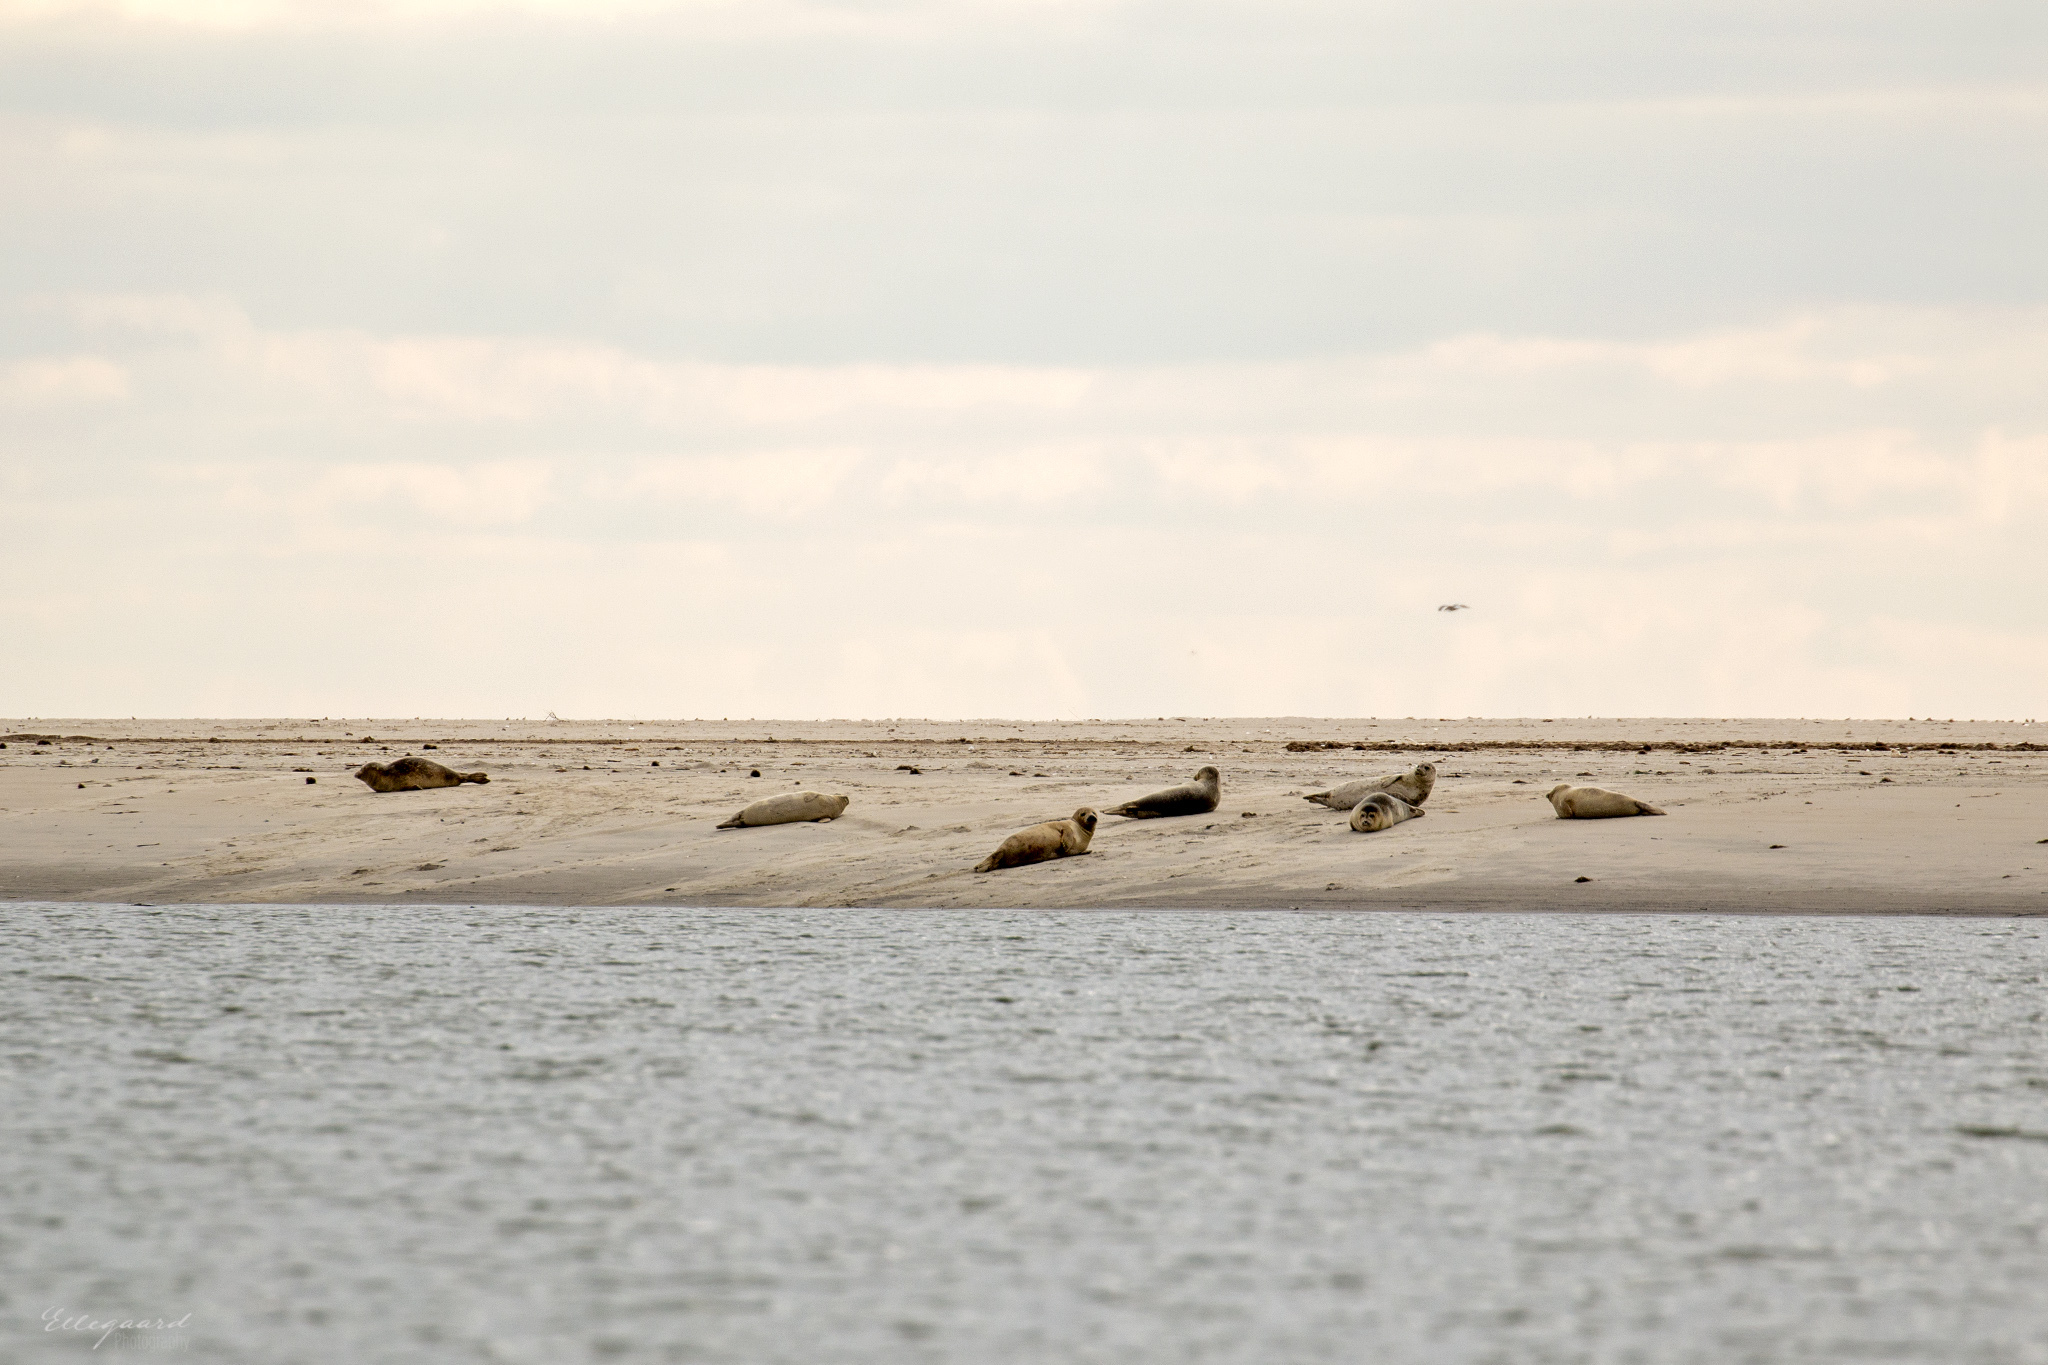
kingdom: Animalia
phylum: Chordata
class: Mammalia
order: Carnivora
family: Phocidae
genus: Phoca
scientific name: Phoca vitulina
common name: Harbor seal
